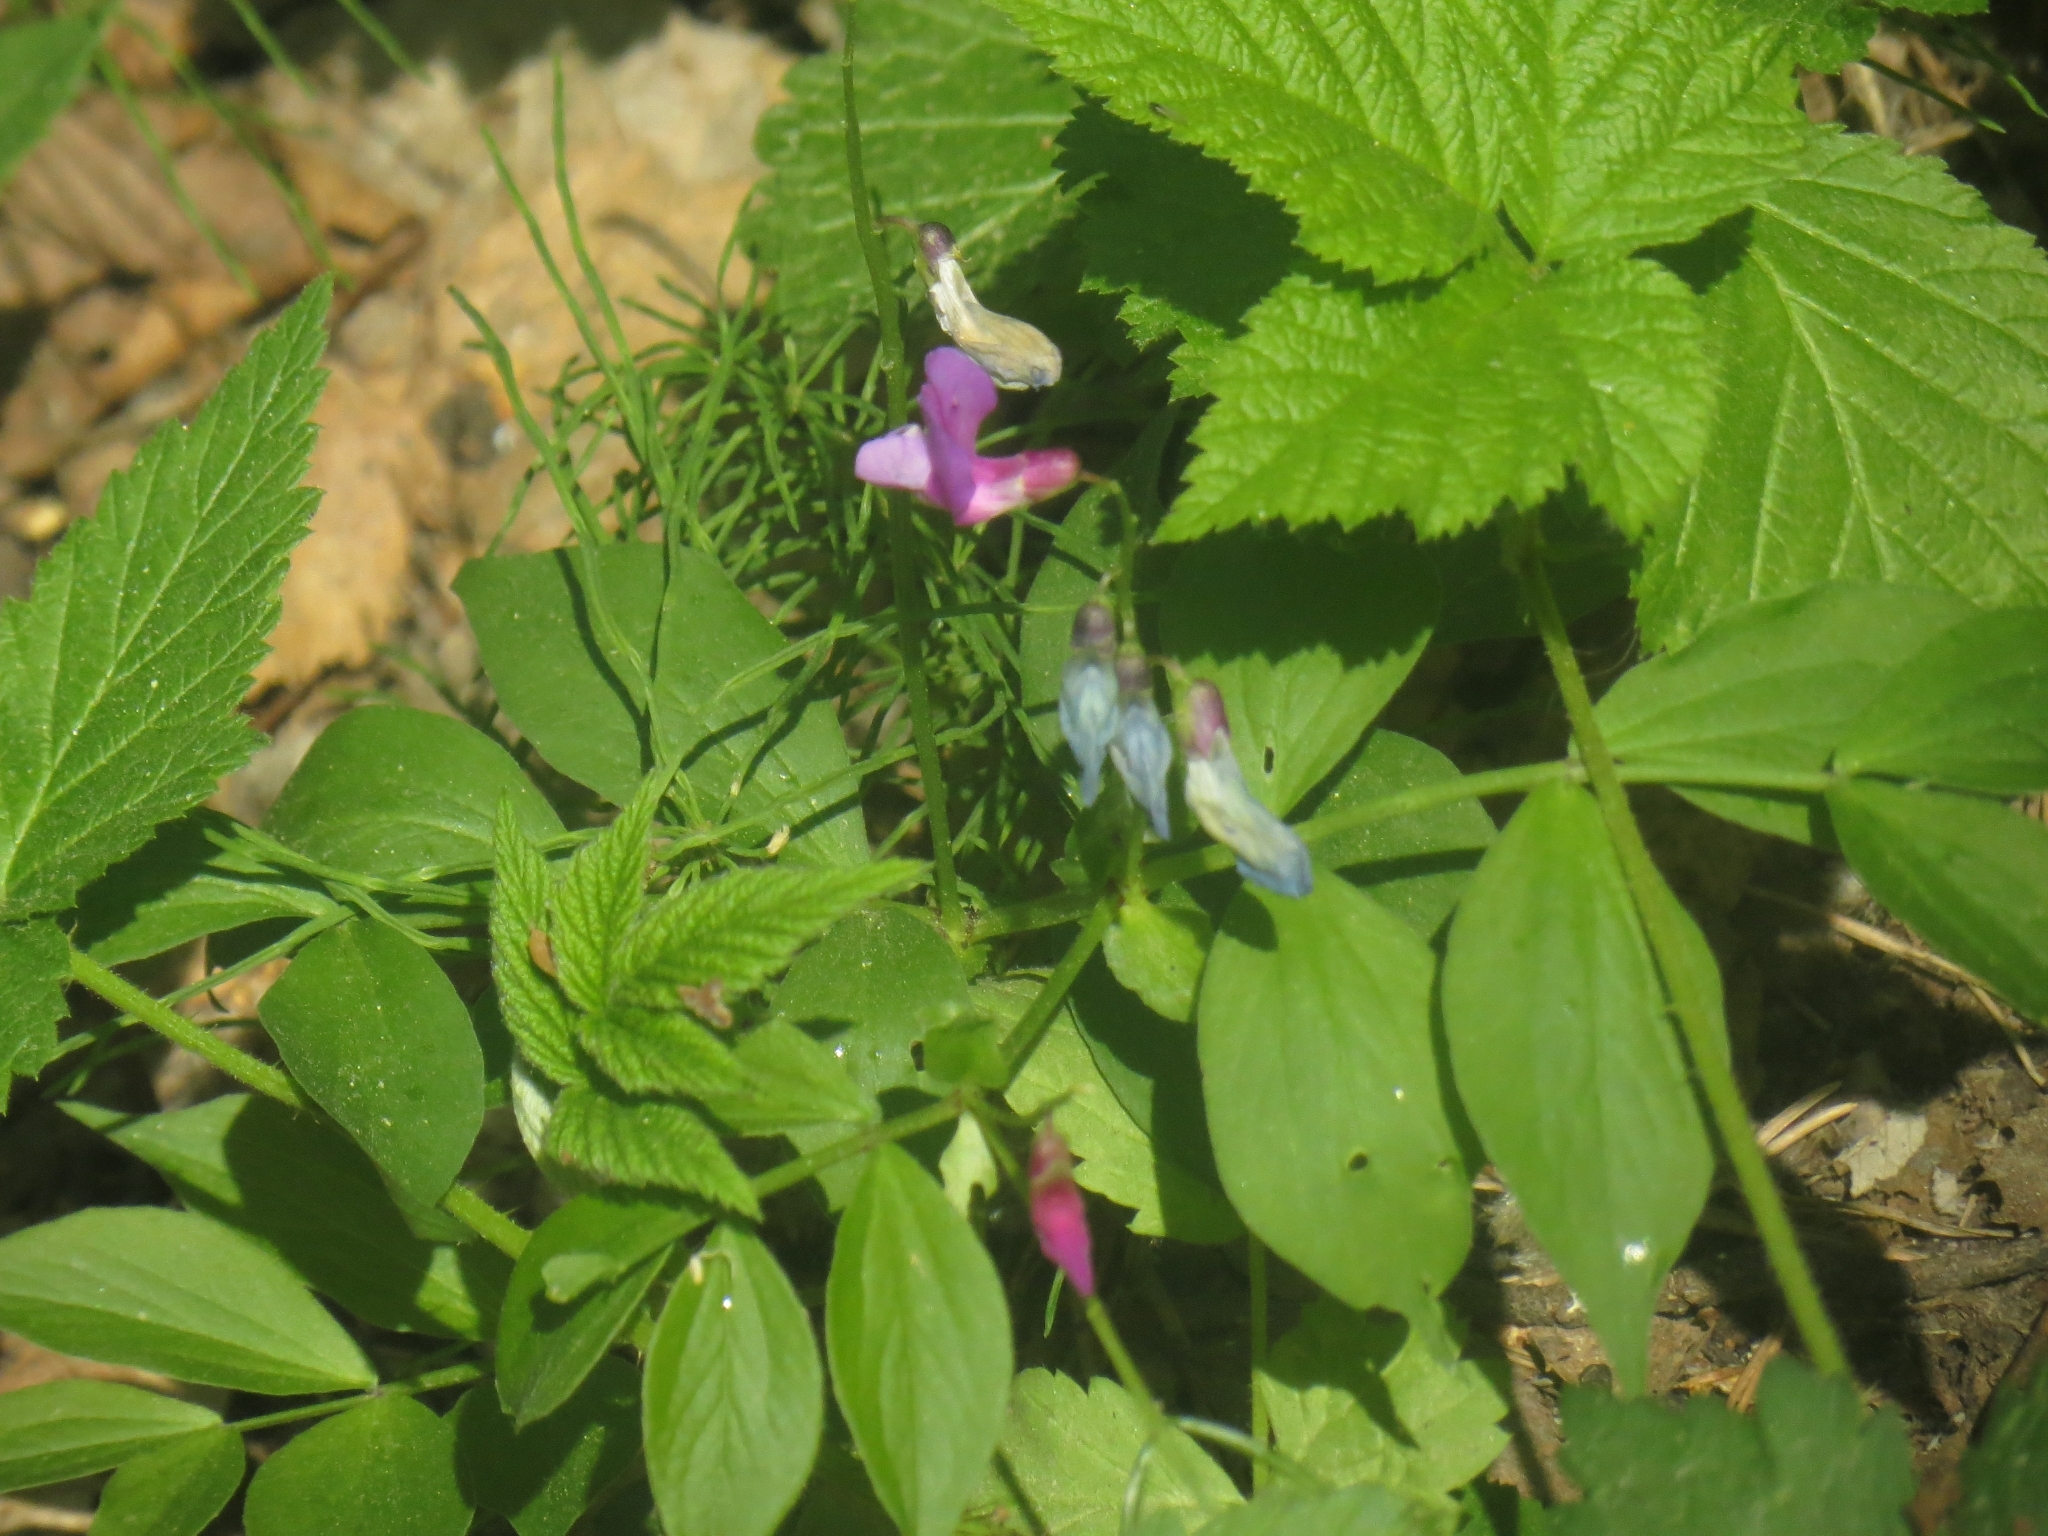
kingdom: Plantae
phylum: Tracheophyta
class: Magnoliopsida
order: Fabales
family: Fabaceae
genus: Lathyrus
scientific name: Lathyrus vernus
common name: Spring pea
